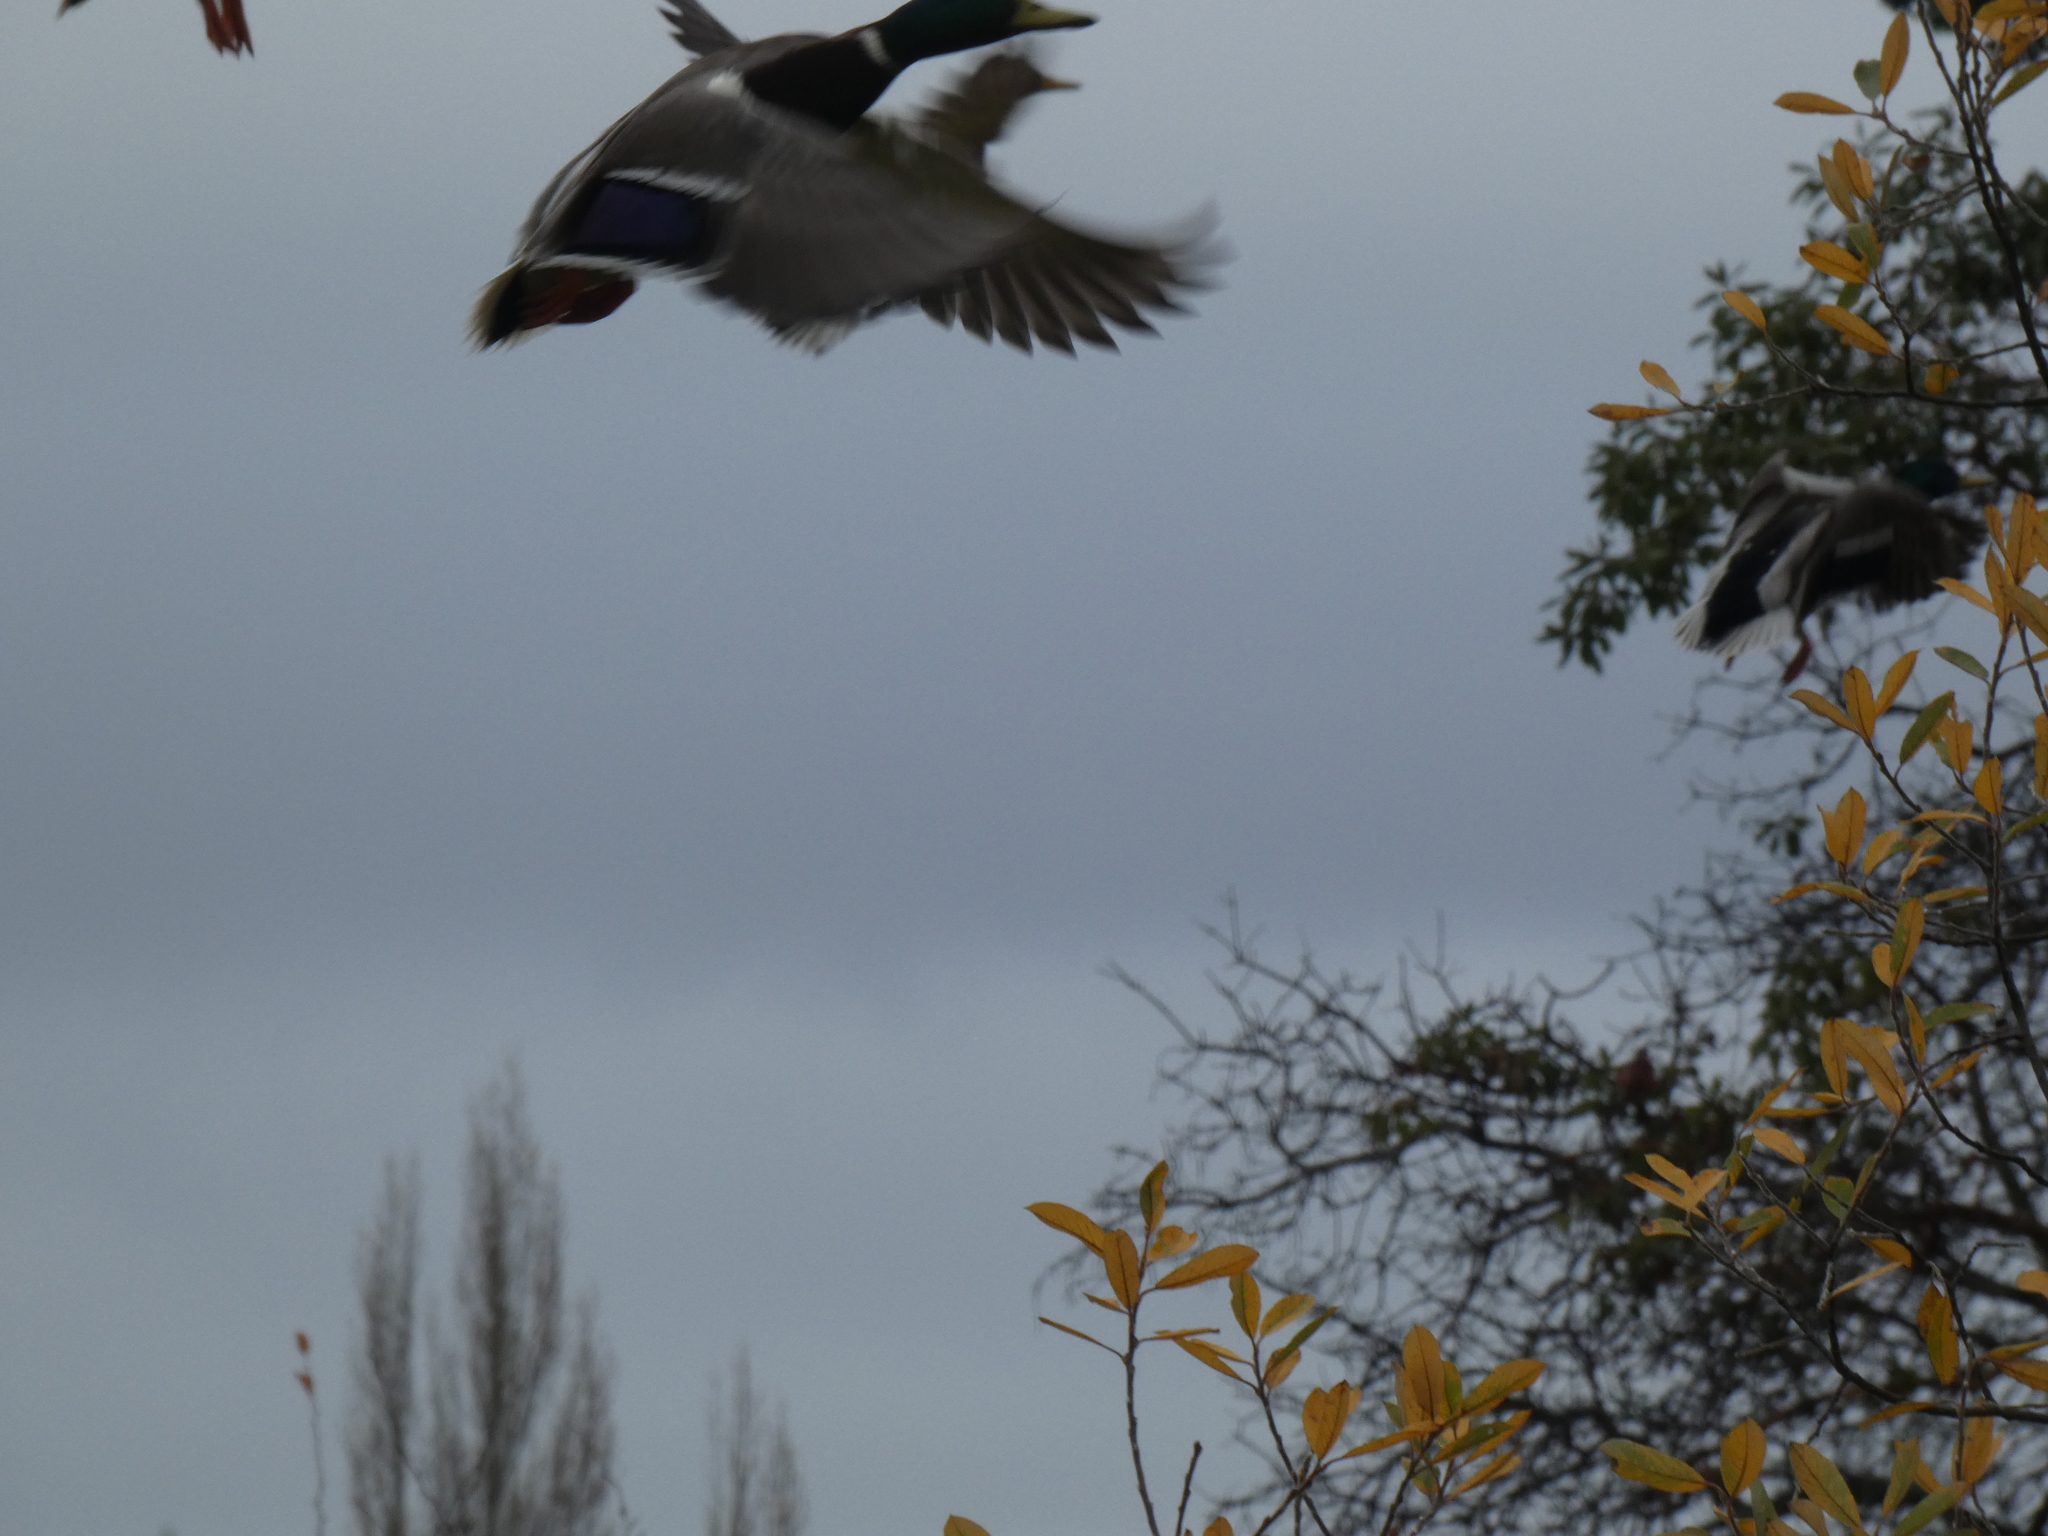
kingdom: Animalia
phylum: Chordata
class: Aves
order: Anseriformes
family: Anatidae
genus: Anas
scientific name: Anas platyrhynchos
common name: Mallard
